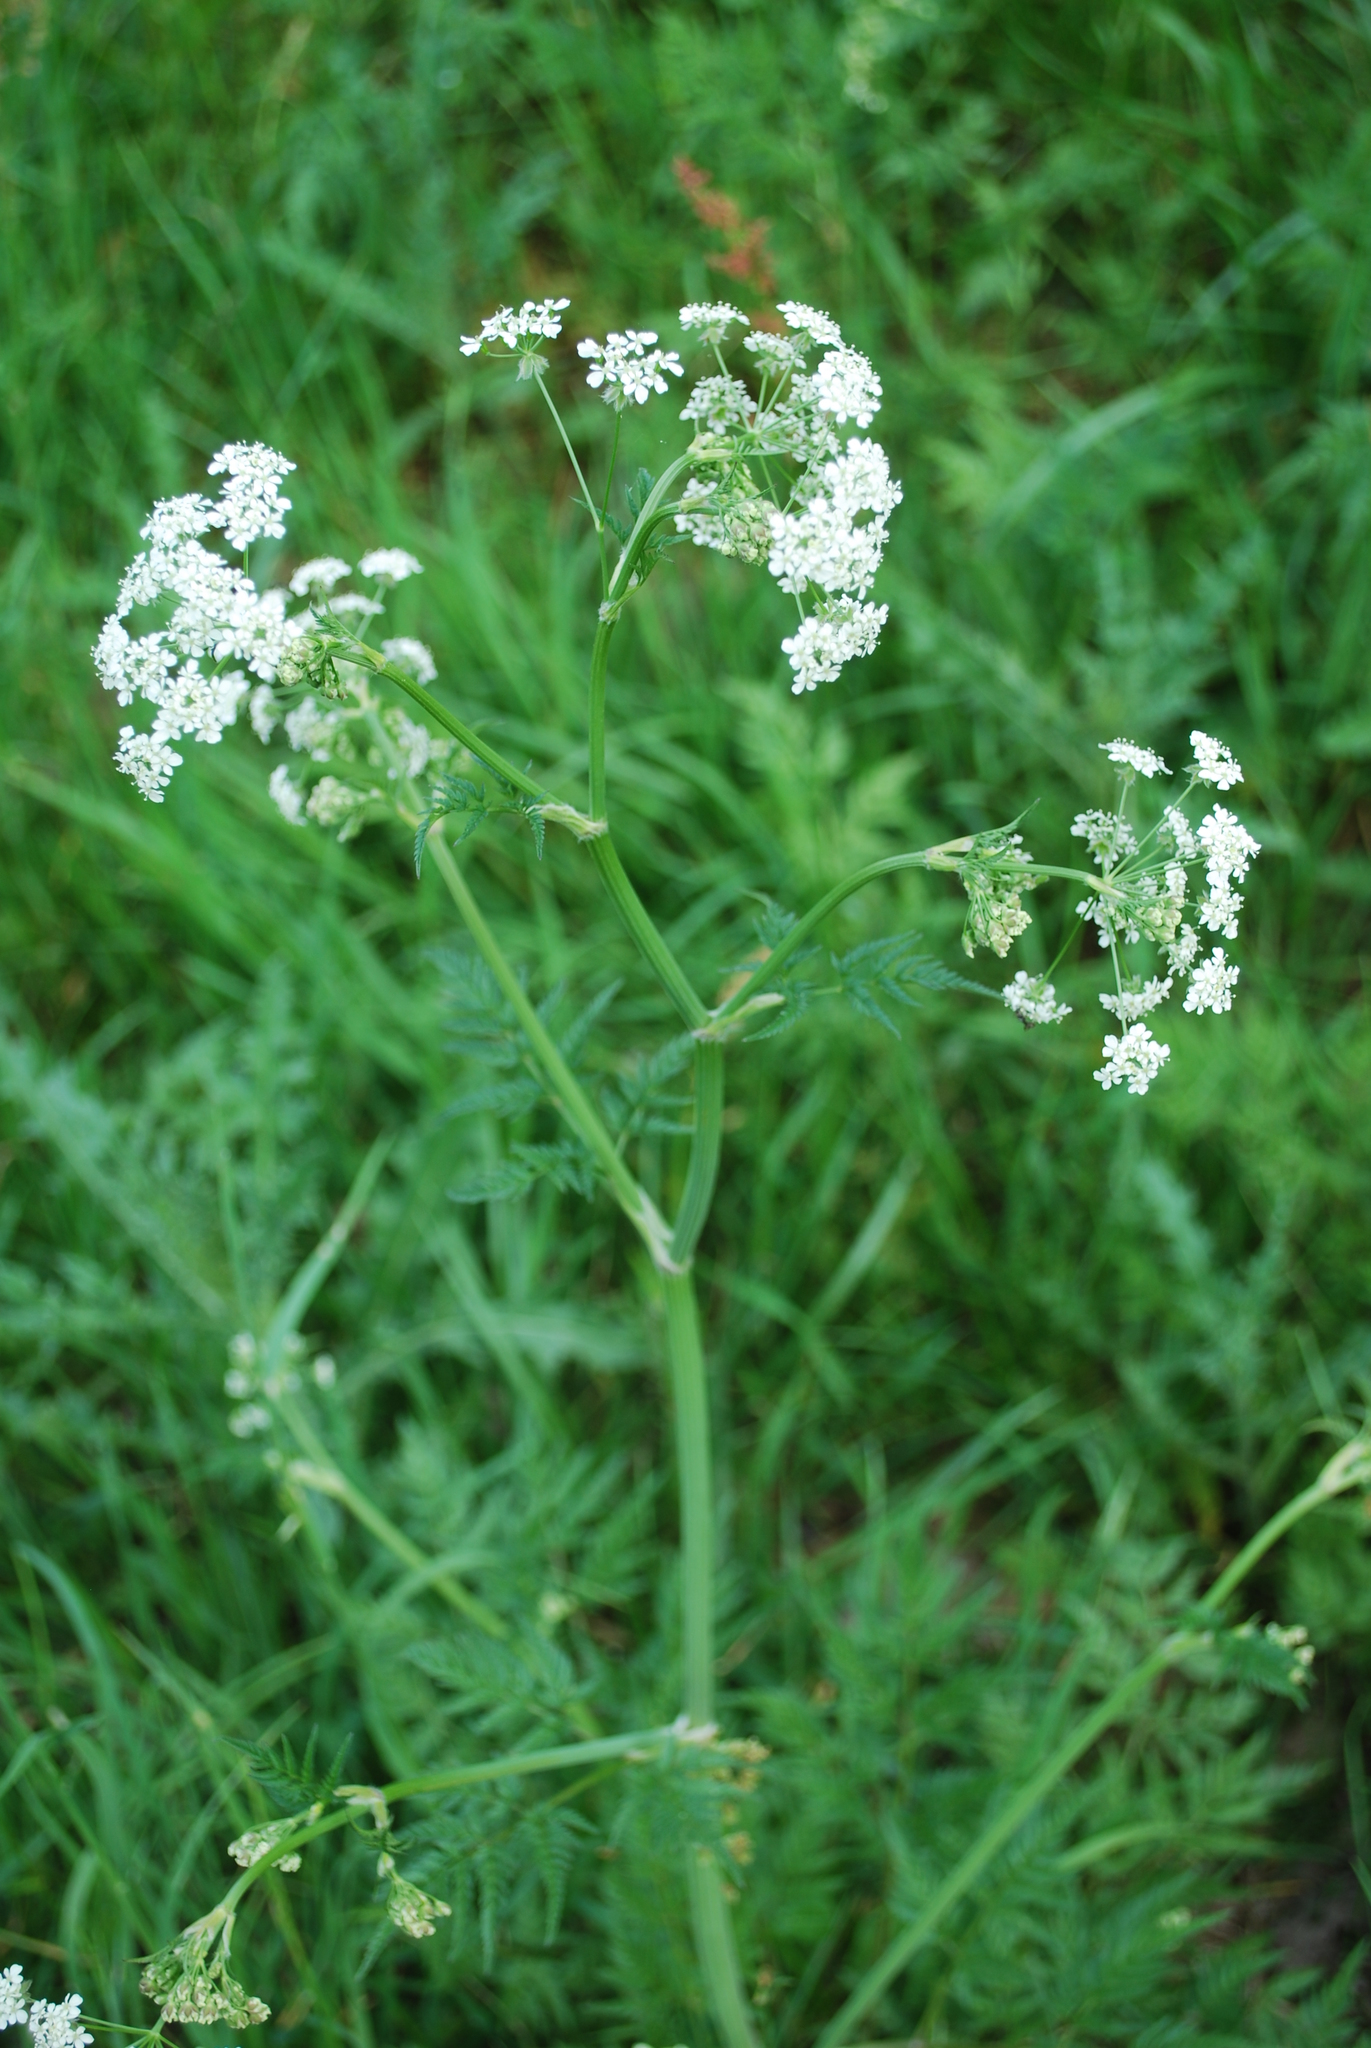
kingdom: Plantae
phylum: Tracheophyta
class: Magnoliopsida
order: Apiales
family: Apiaceae
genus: Anthriscus
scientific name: Anthriscus sylvestris
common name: Cow parsley
